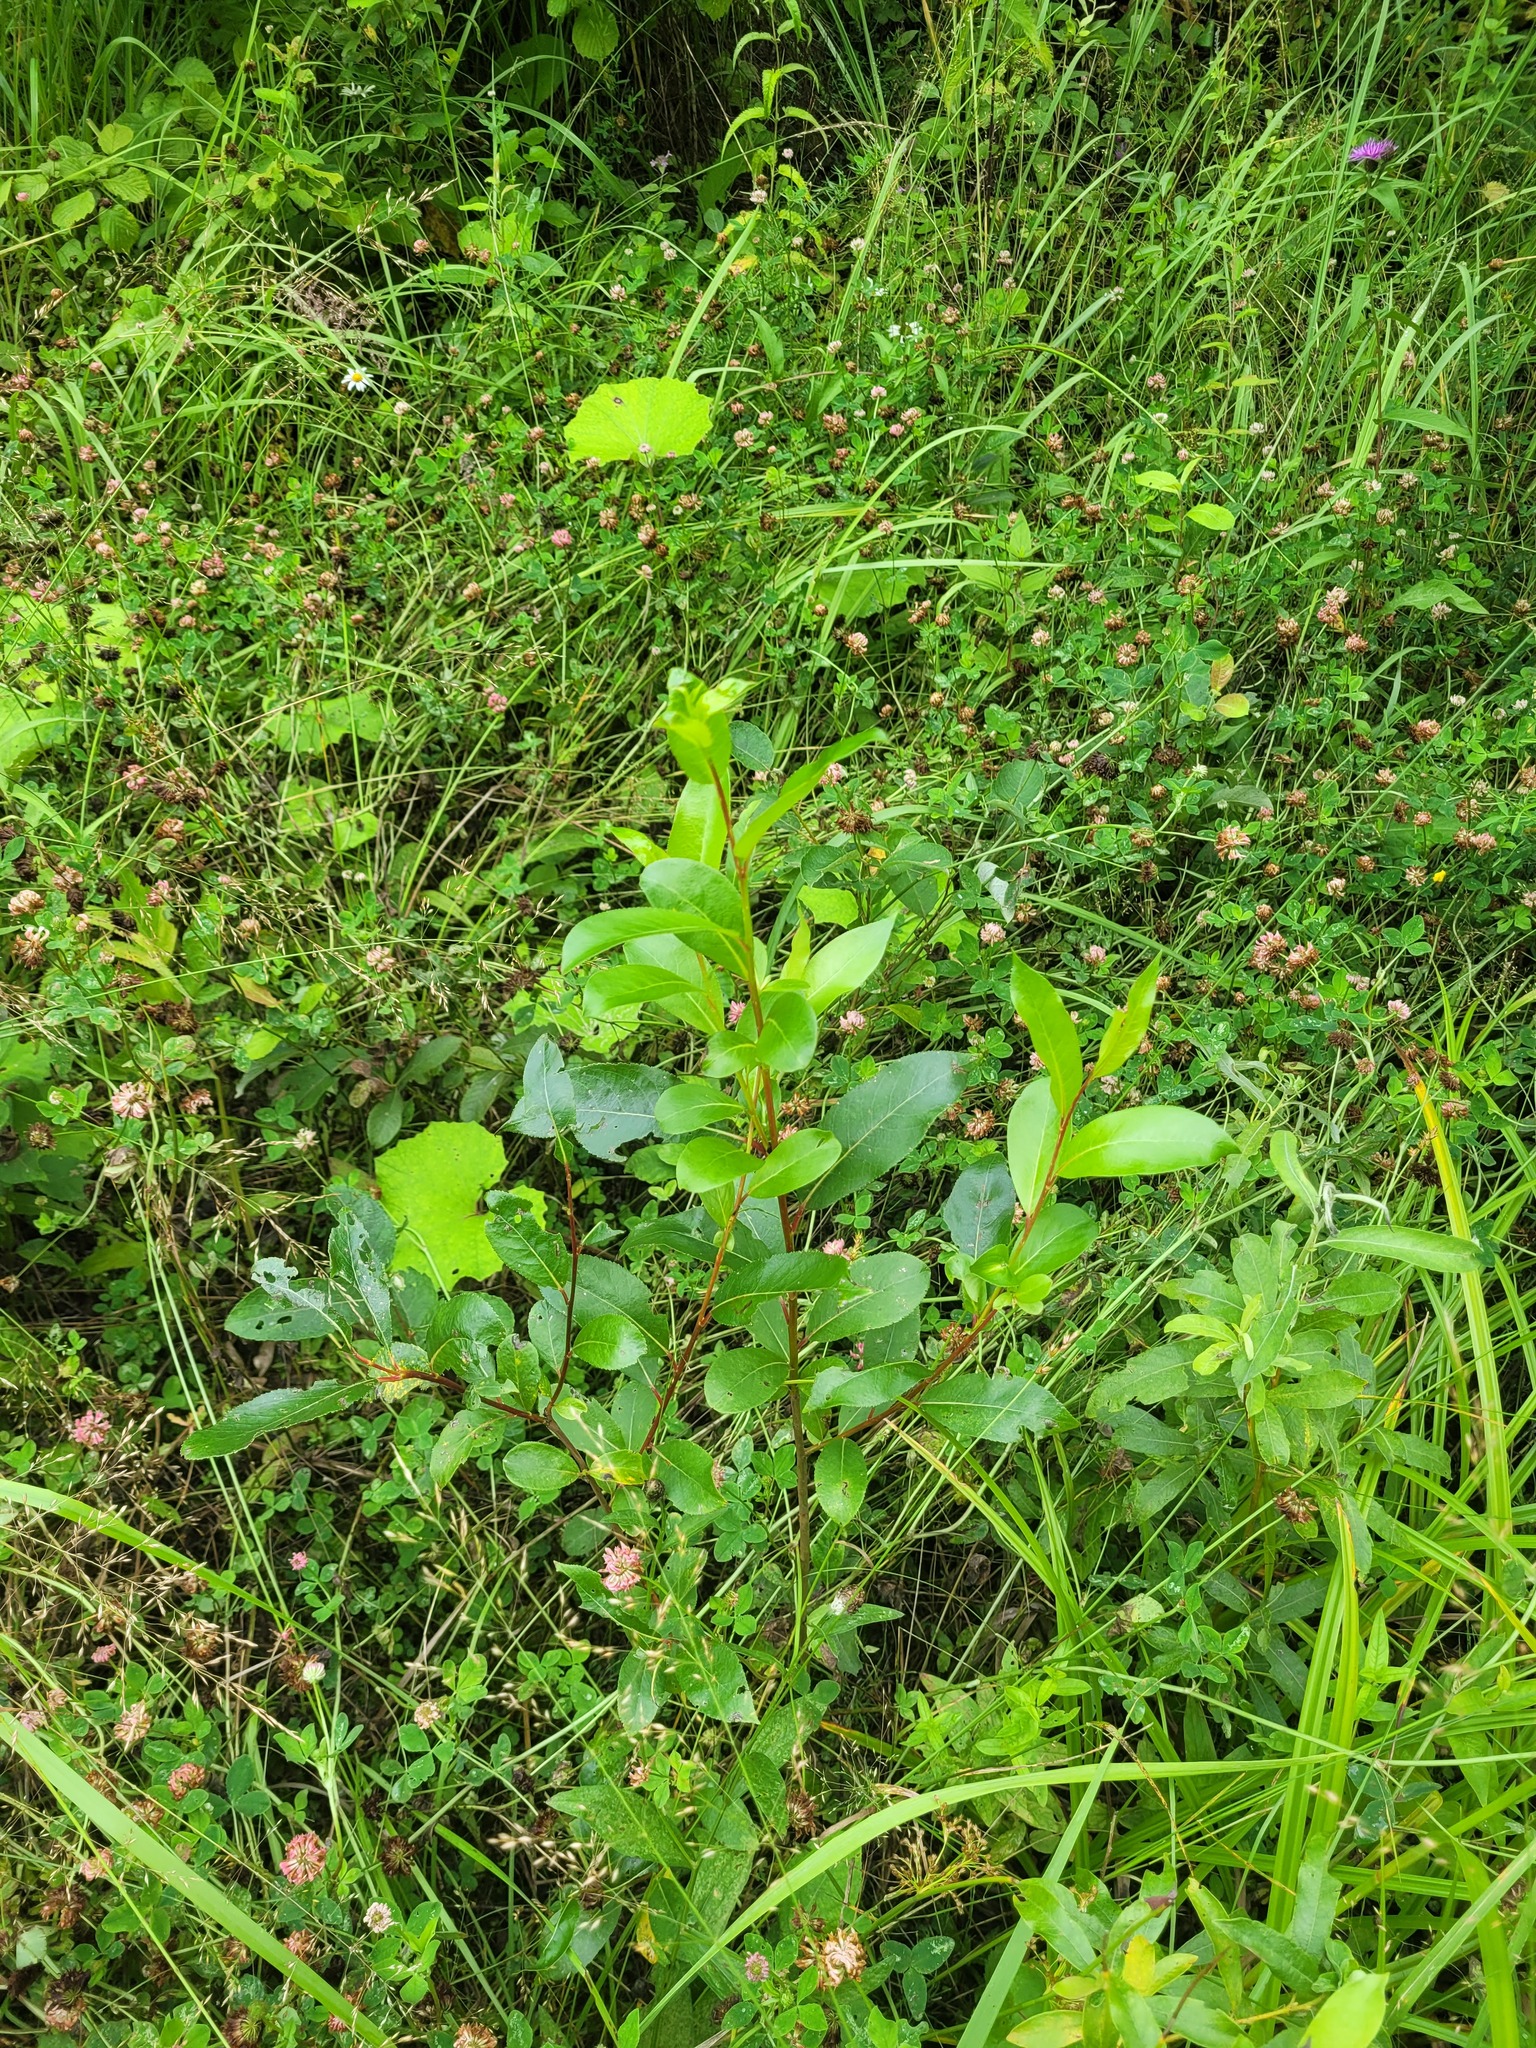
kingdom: Plantae
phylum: Tracheophyta
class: Magnoliopsida
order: Malpighiales
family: Salicaceae
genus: Salix
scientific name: Salix pentandra
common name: Bay willow
